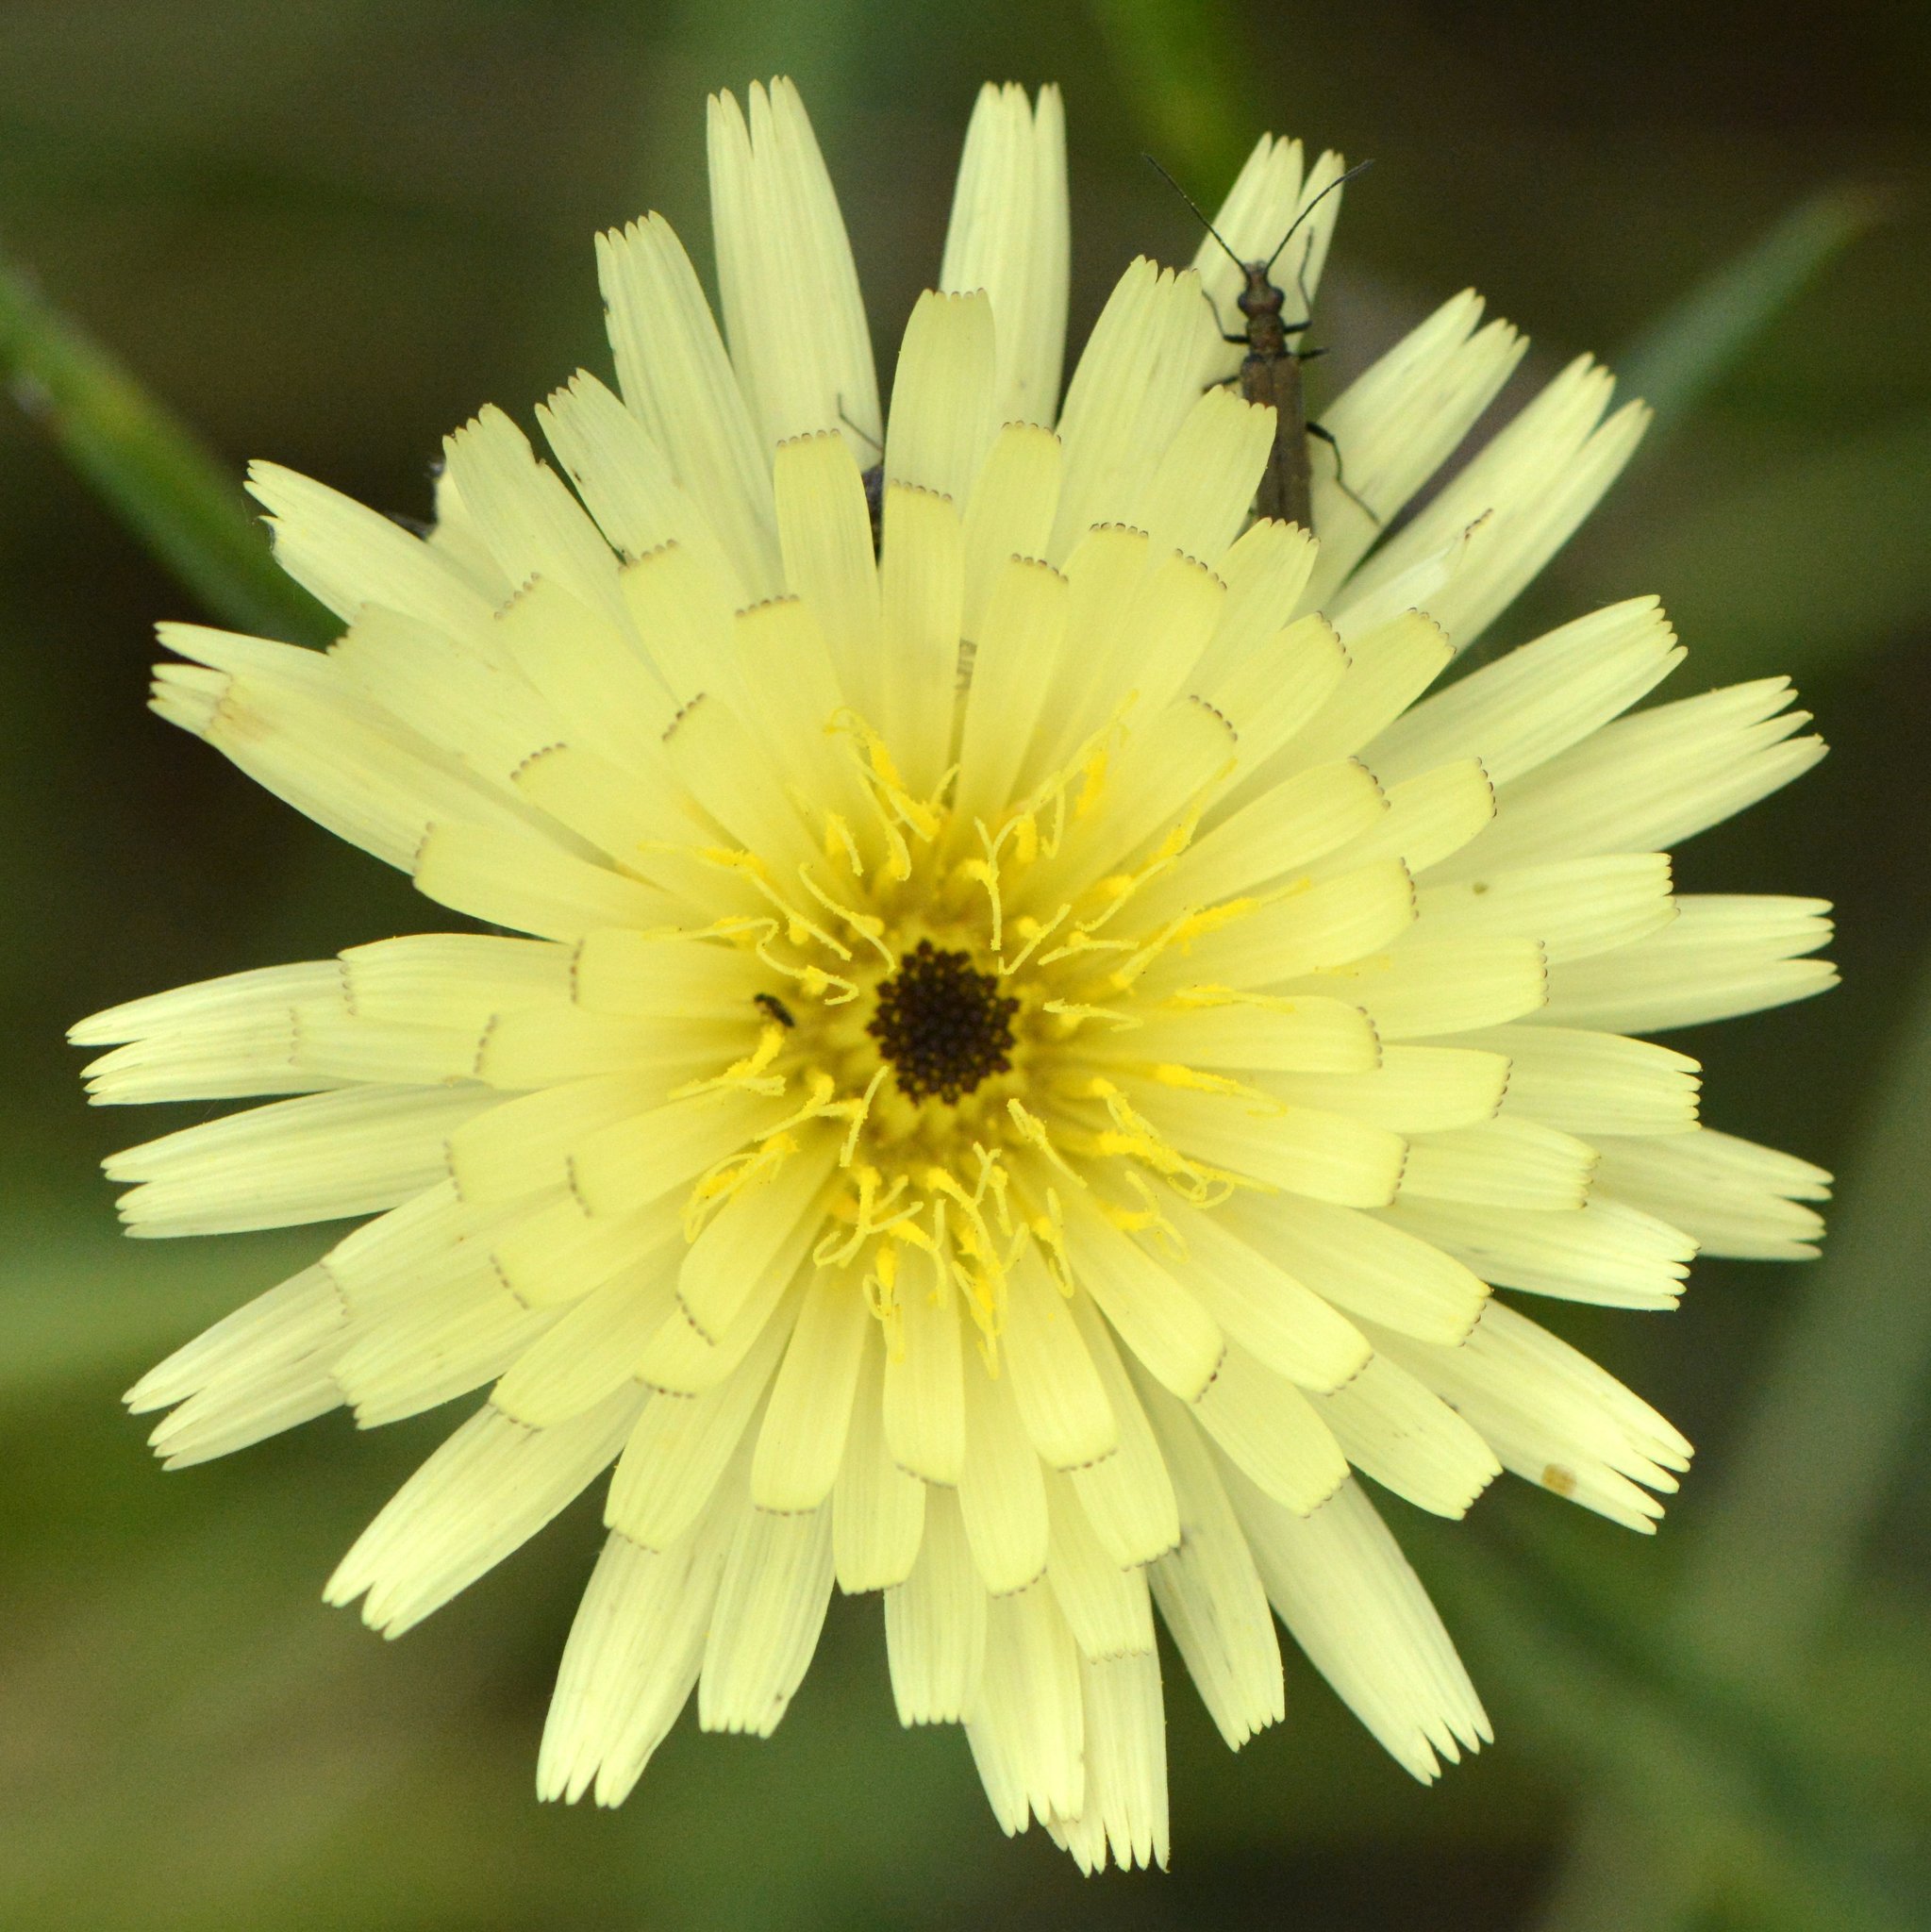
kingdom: Plantae
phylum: Tracheophyta
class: Magnoliopsida
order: Asterales
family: Asteraceae
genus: Urospermum
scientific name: Urospermum dalechampii
